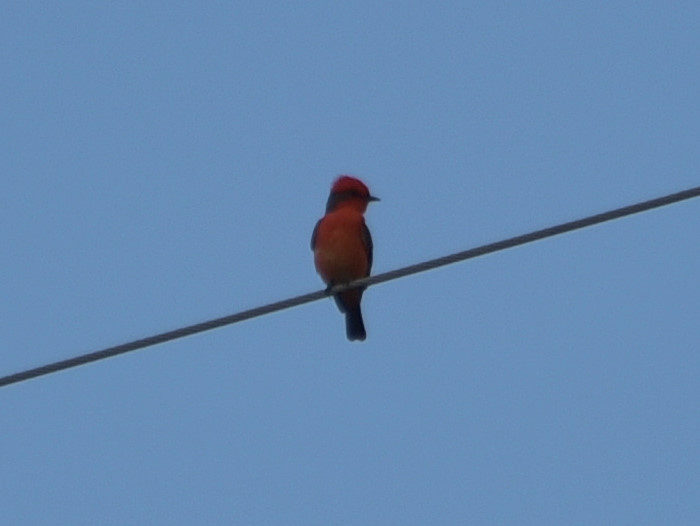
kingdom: Animalia
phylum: Chordata
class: Aves
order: Passeriformes
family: Tyrannidae
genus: Pyrocephalus
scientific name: Pyrocephalus rubinus
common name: Vermilion flycatcher
